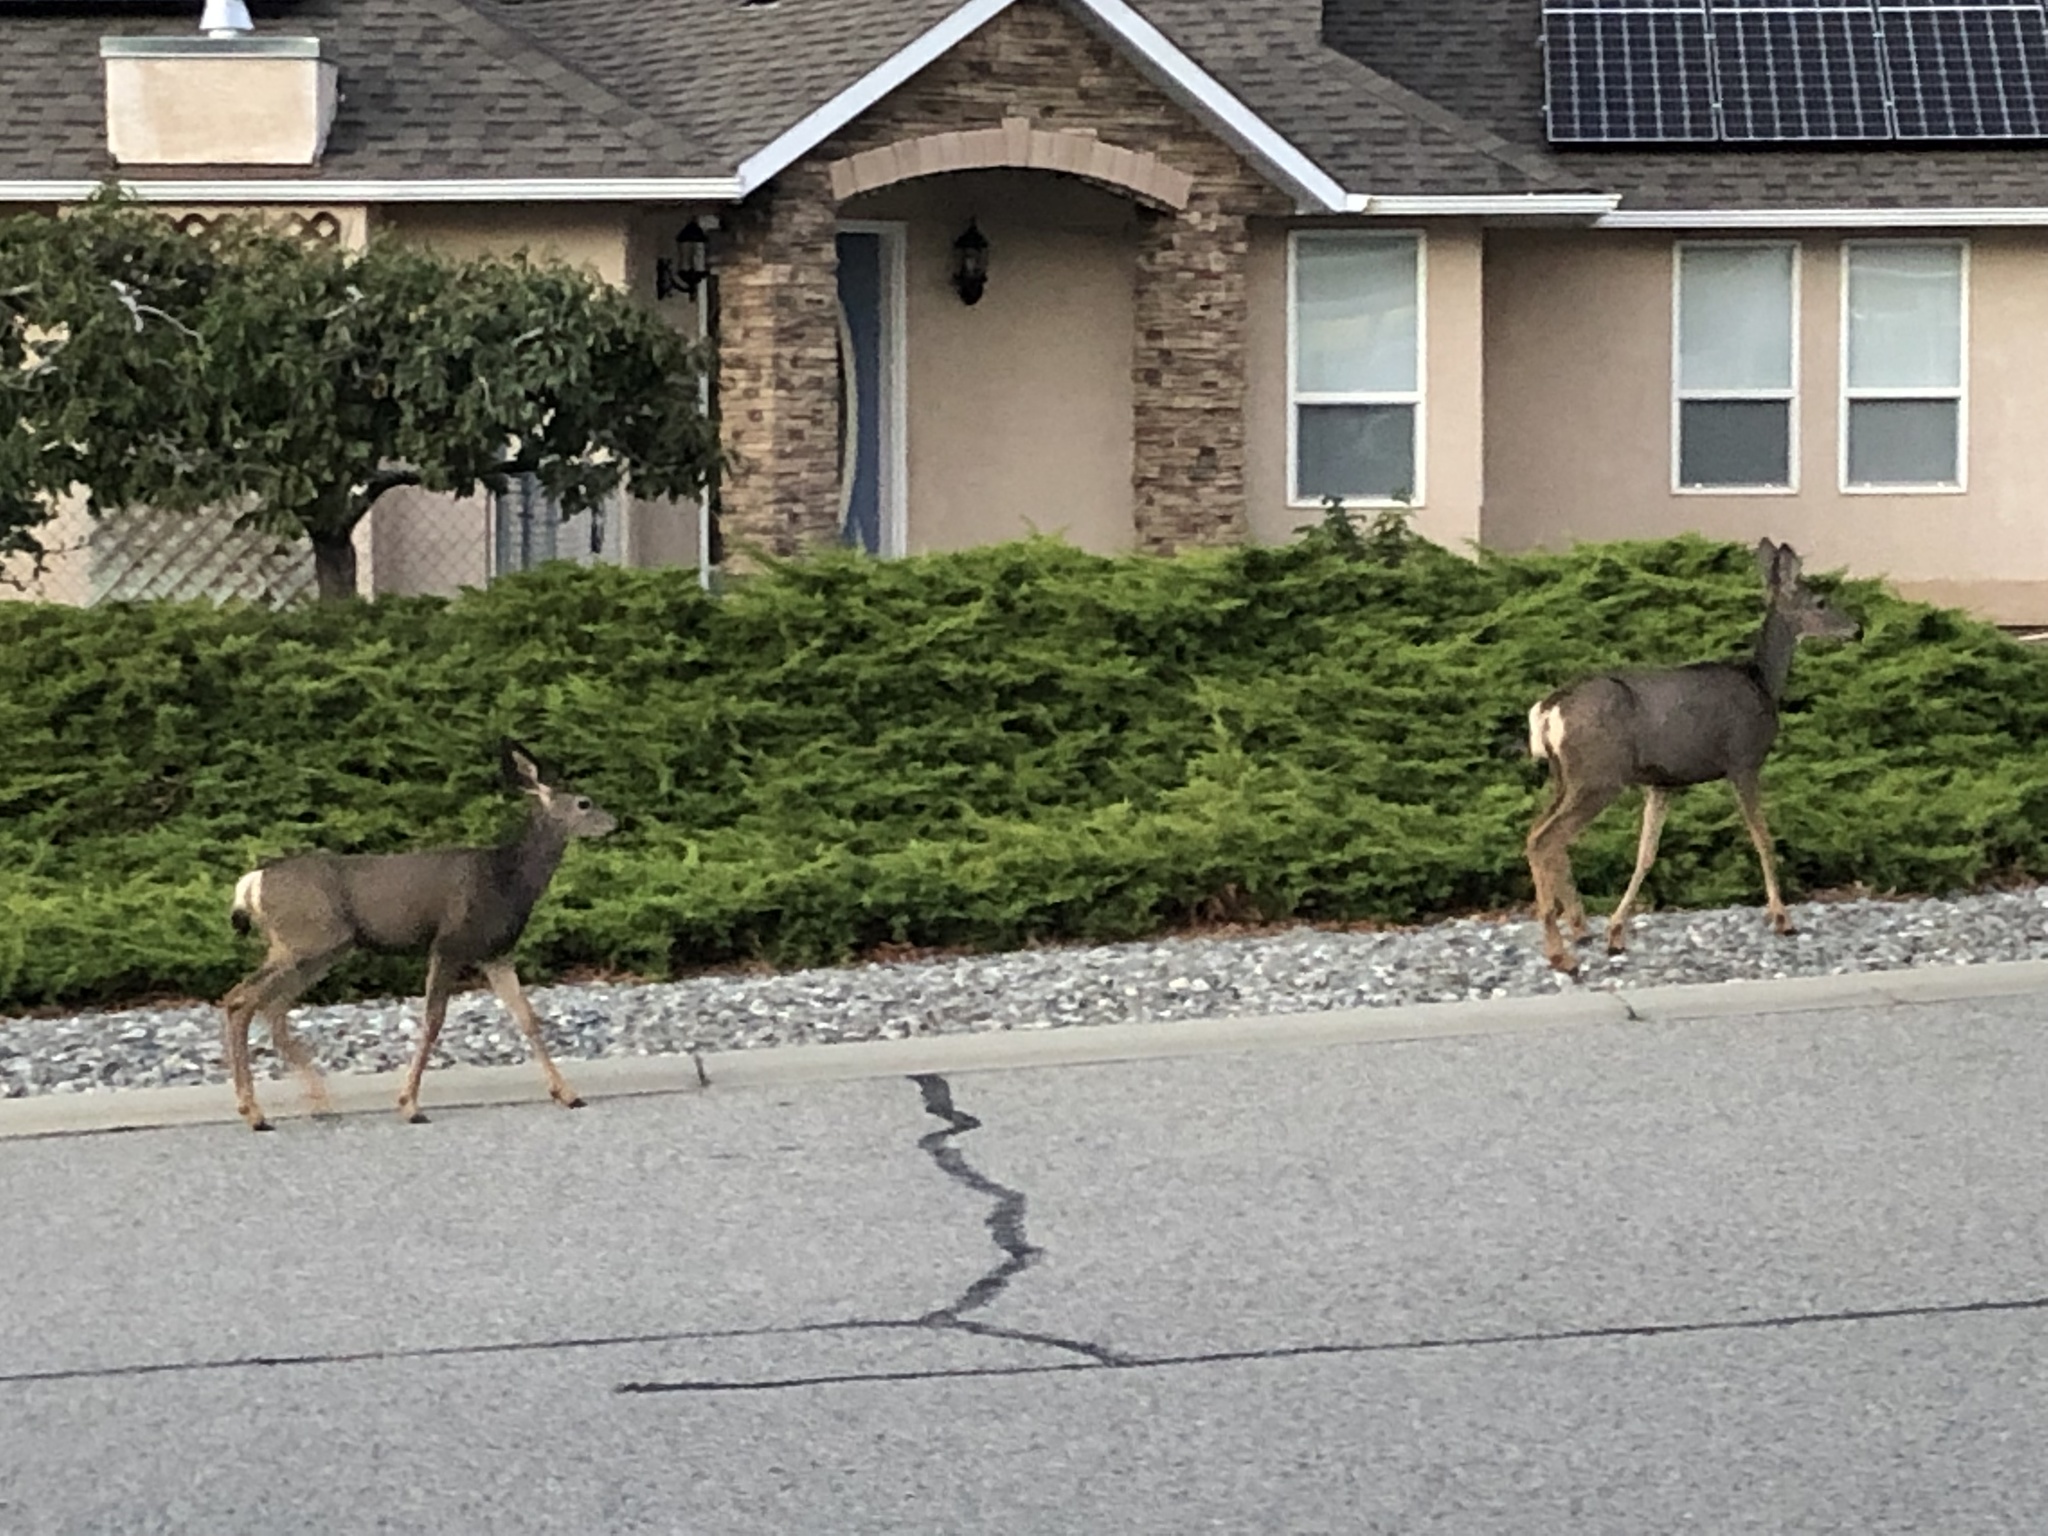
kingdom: Animalia
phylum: Chordata
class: Mammalia
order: Artiodactyla
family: Cervidae
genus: Odocoileus
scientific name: Odocoileus hemionus
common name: Mule deer
